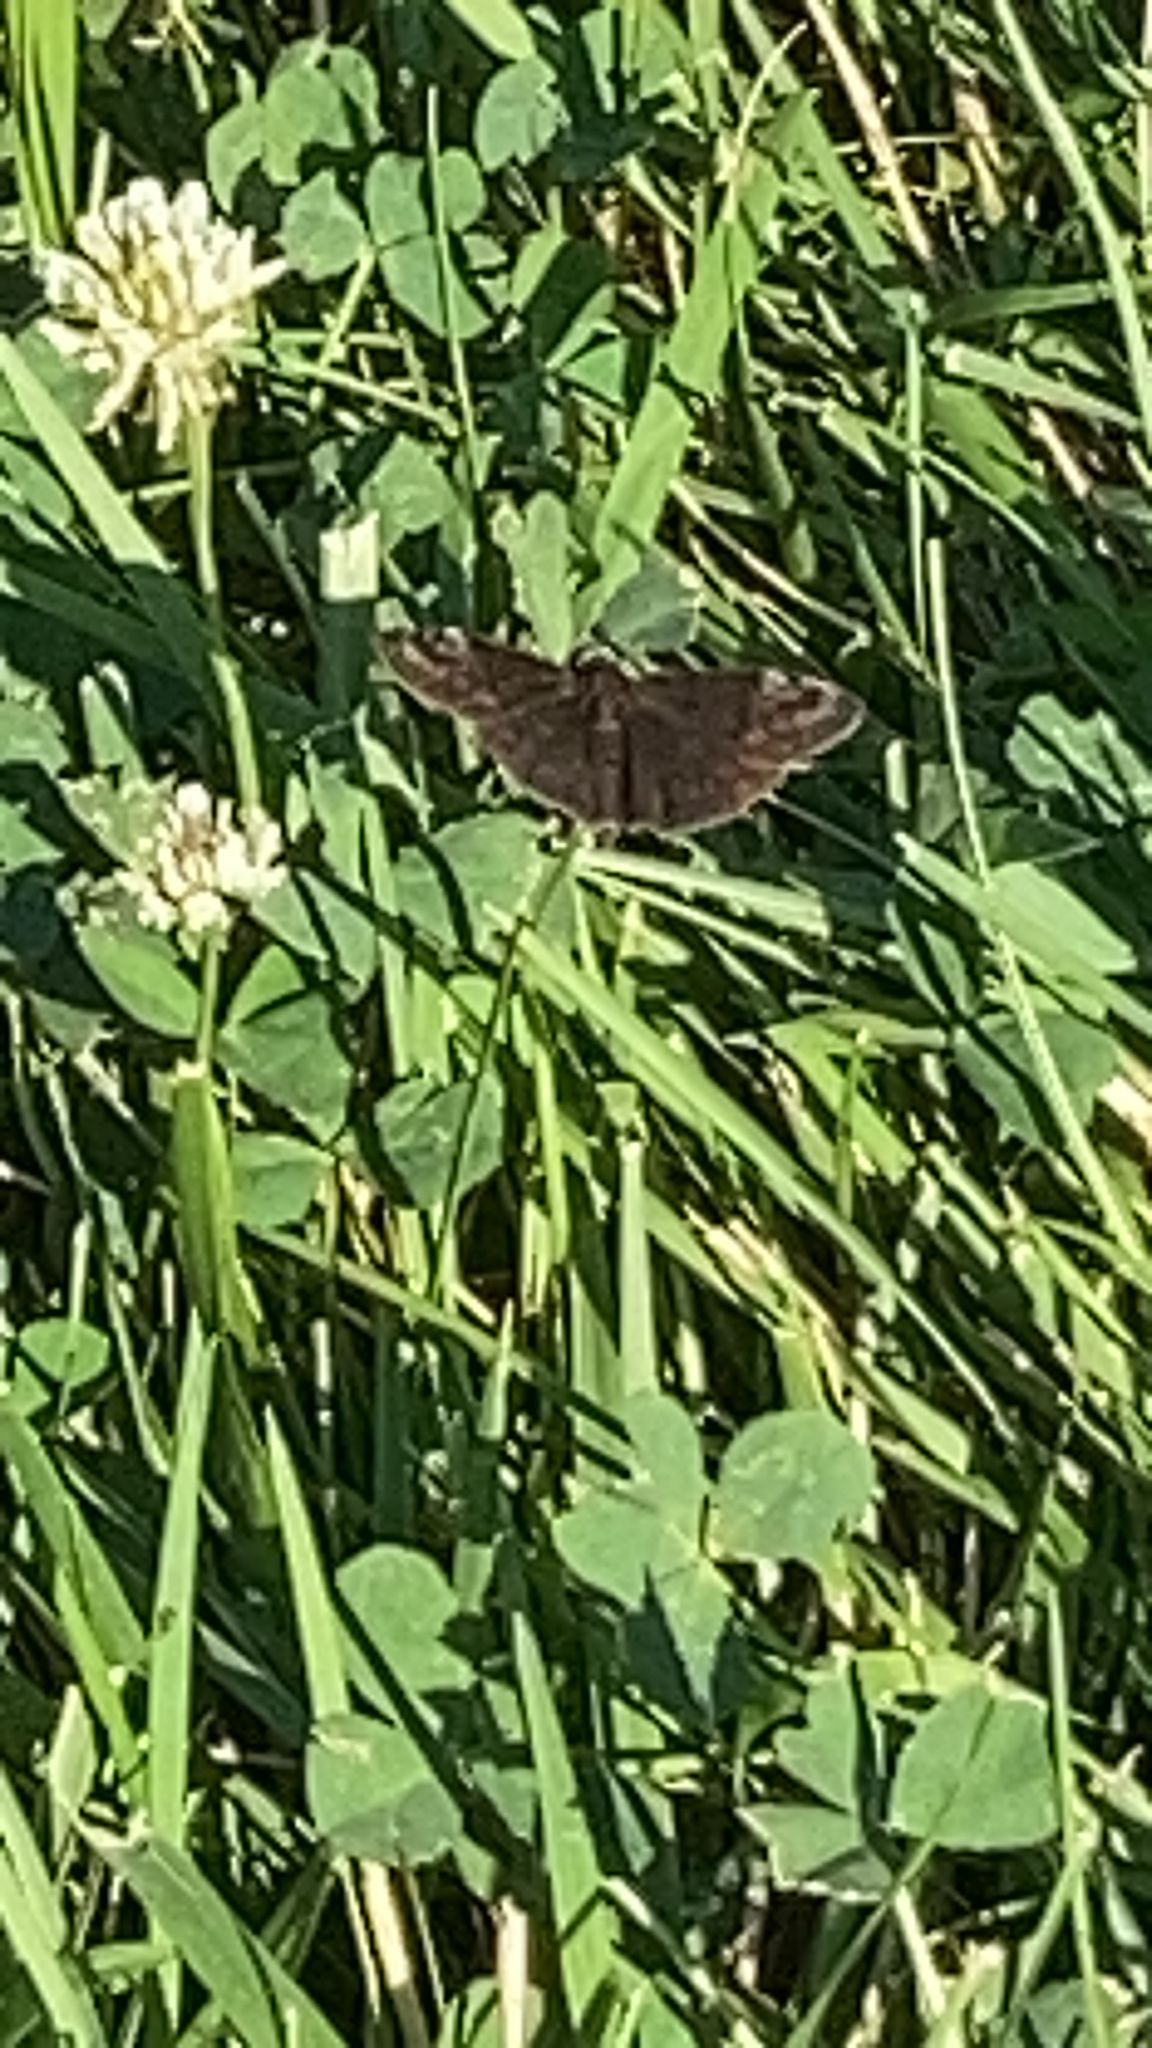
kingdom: Animalia
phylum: Arthropoda
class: Insecta
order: Lepidoptera
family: Hesperiidae
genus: Erynnis
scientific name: Erynnis baptisiae
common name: Wild indigo duskywing
